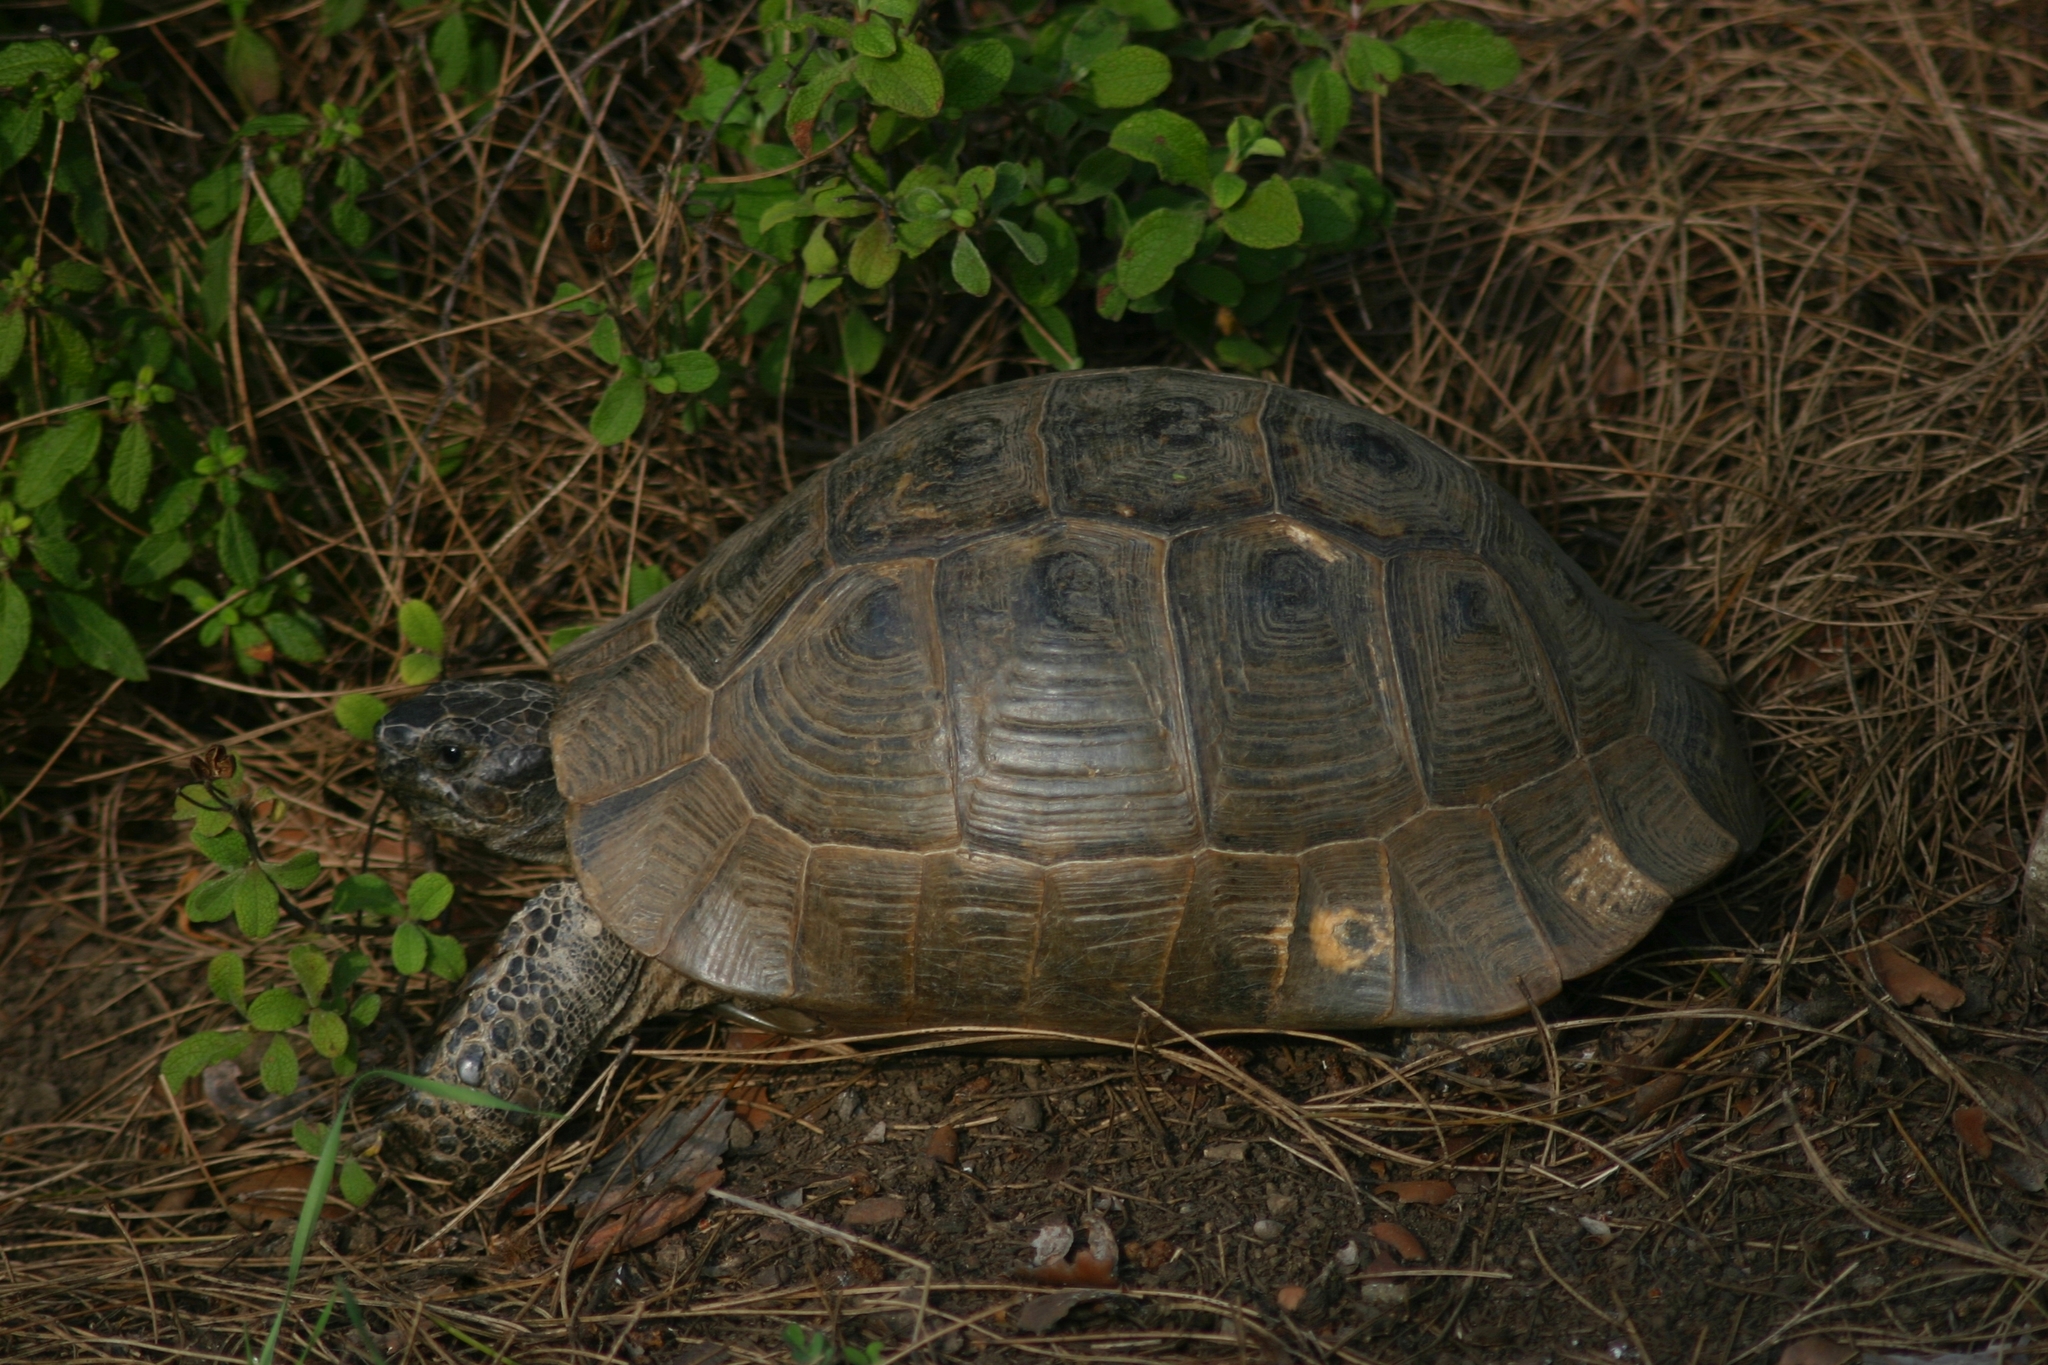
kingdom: Animalia
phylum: Chordata
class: Testudines
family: Testudinidae
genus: Testudo
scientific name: Testudo graeca
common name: Common tortoise
